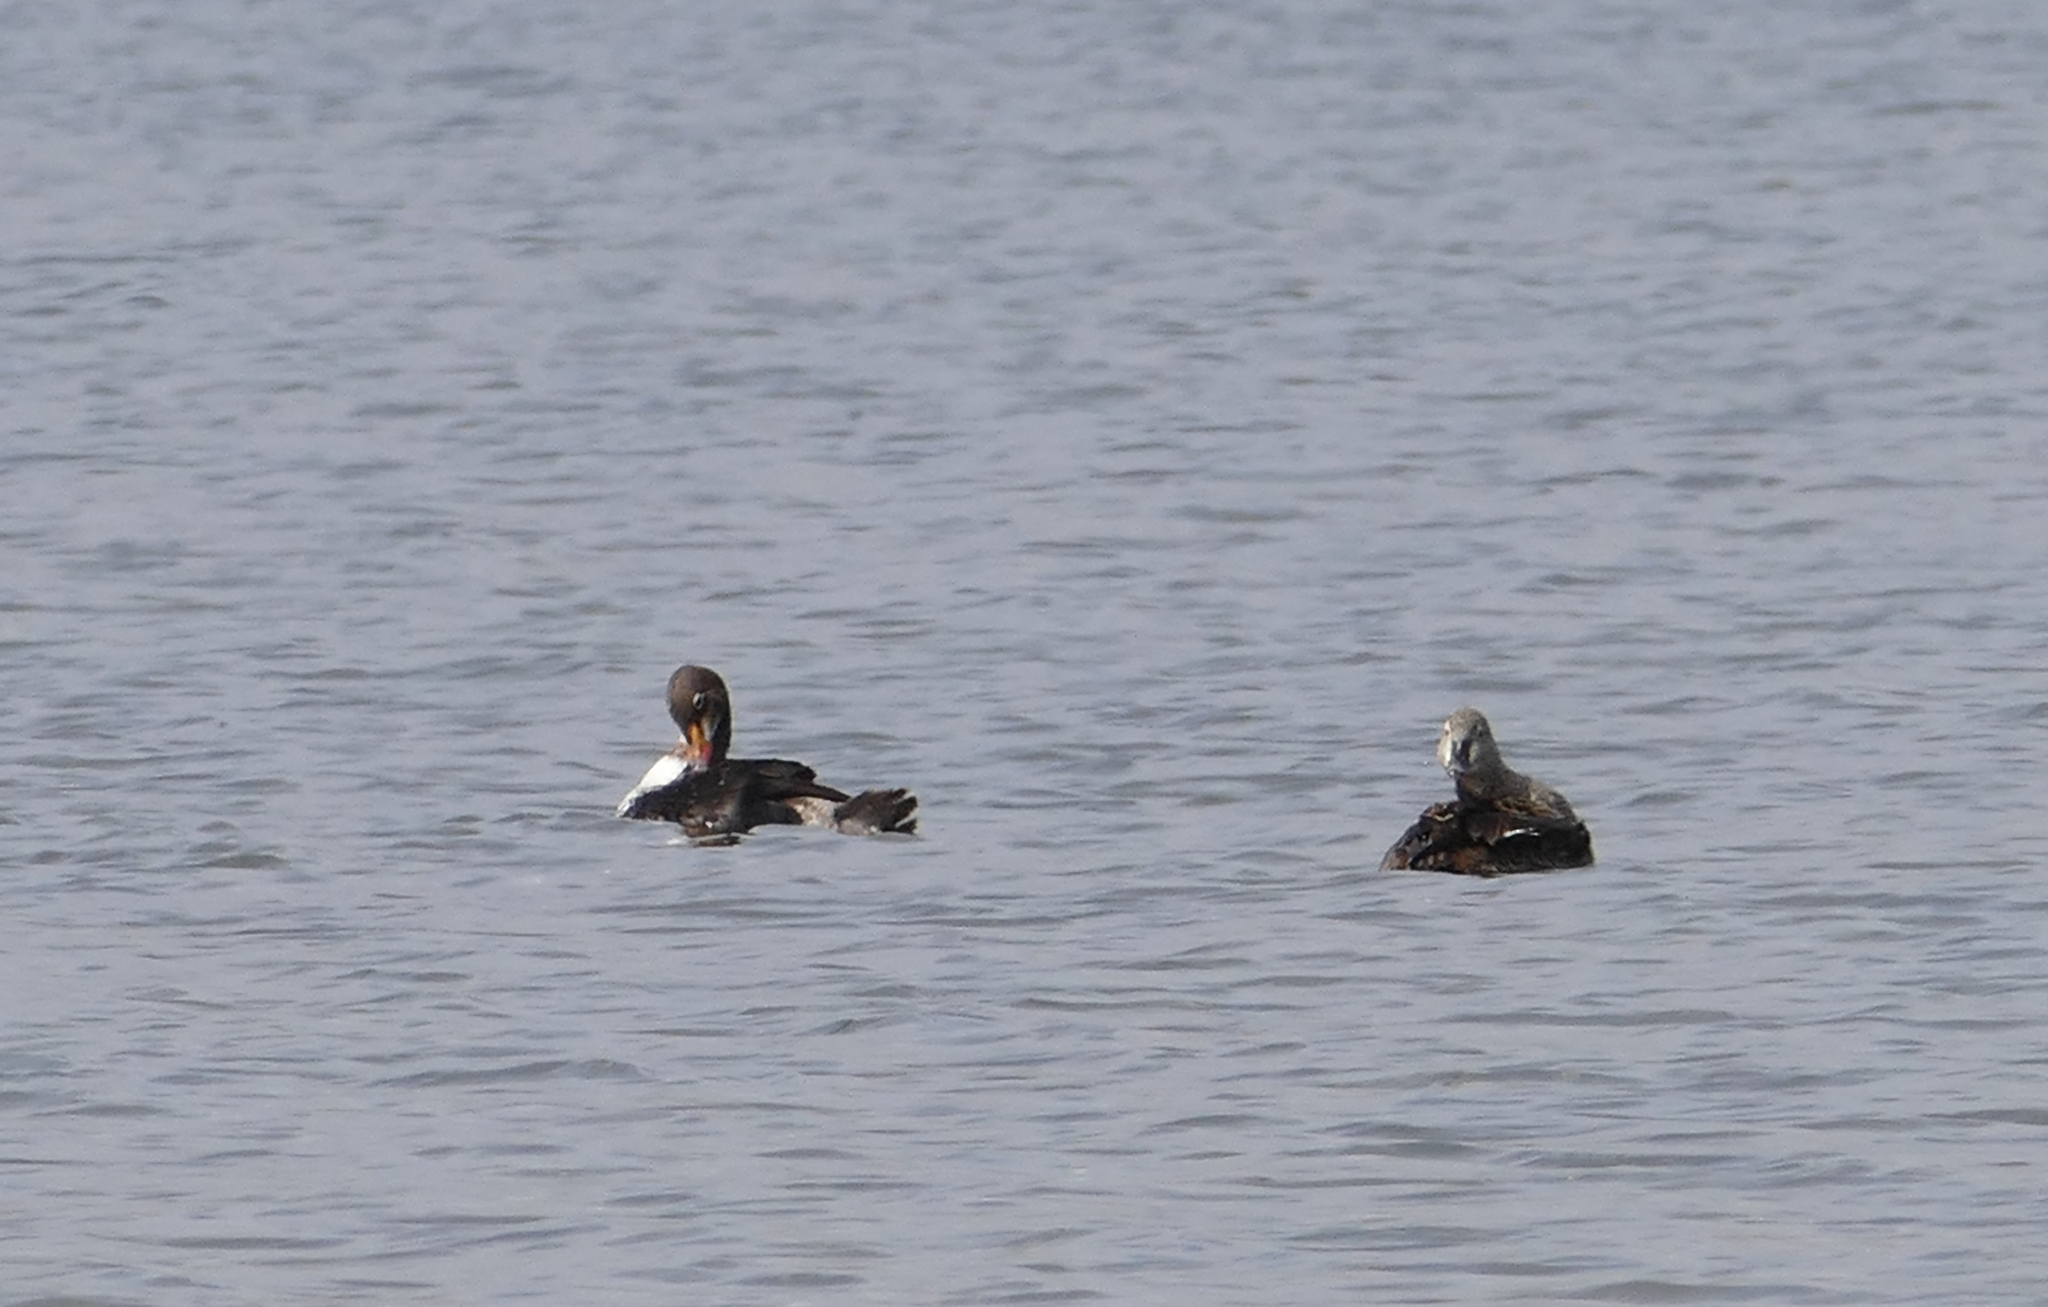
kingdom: Animalia
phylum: Chordata
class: Aves
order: Anseriformes
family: Anatidae
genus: Somateria
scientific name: Somateria spectabilis
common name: King eider
